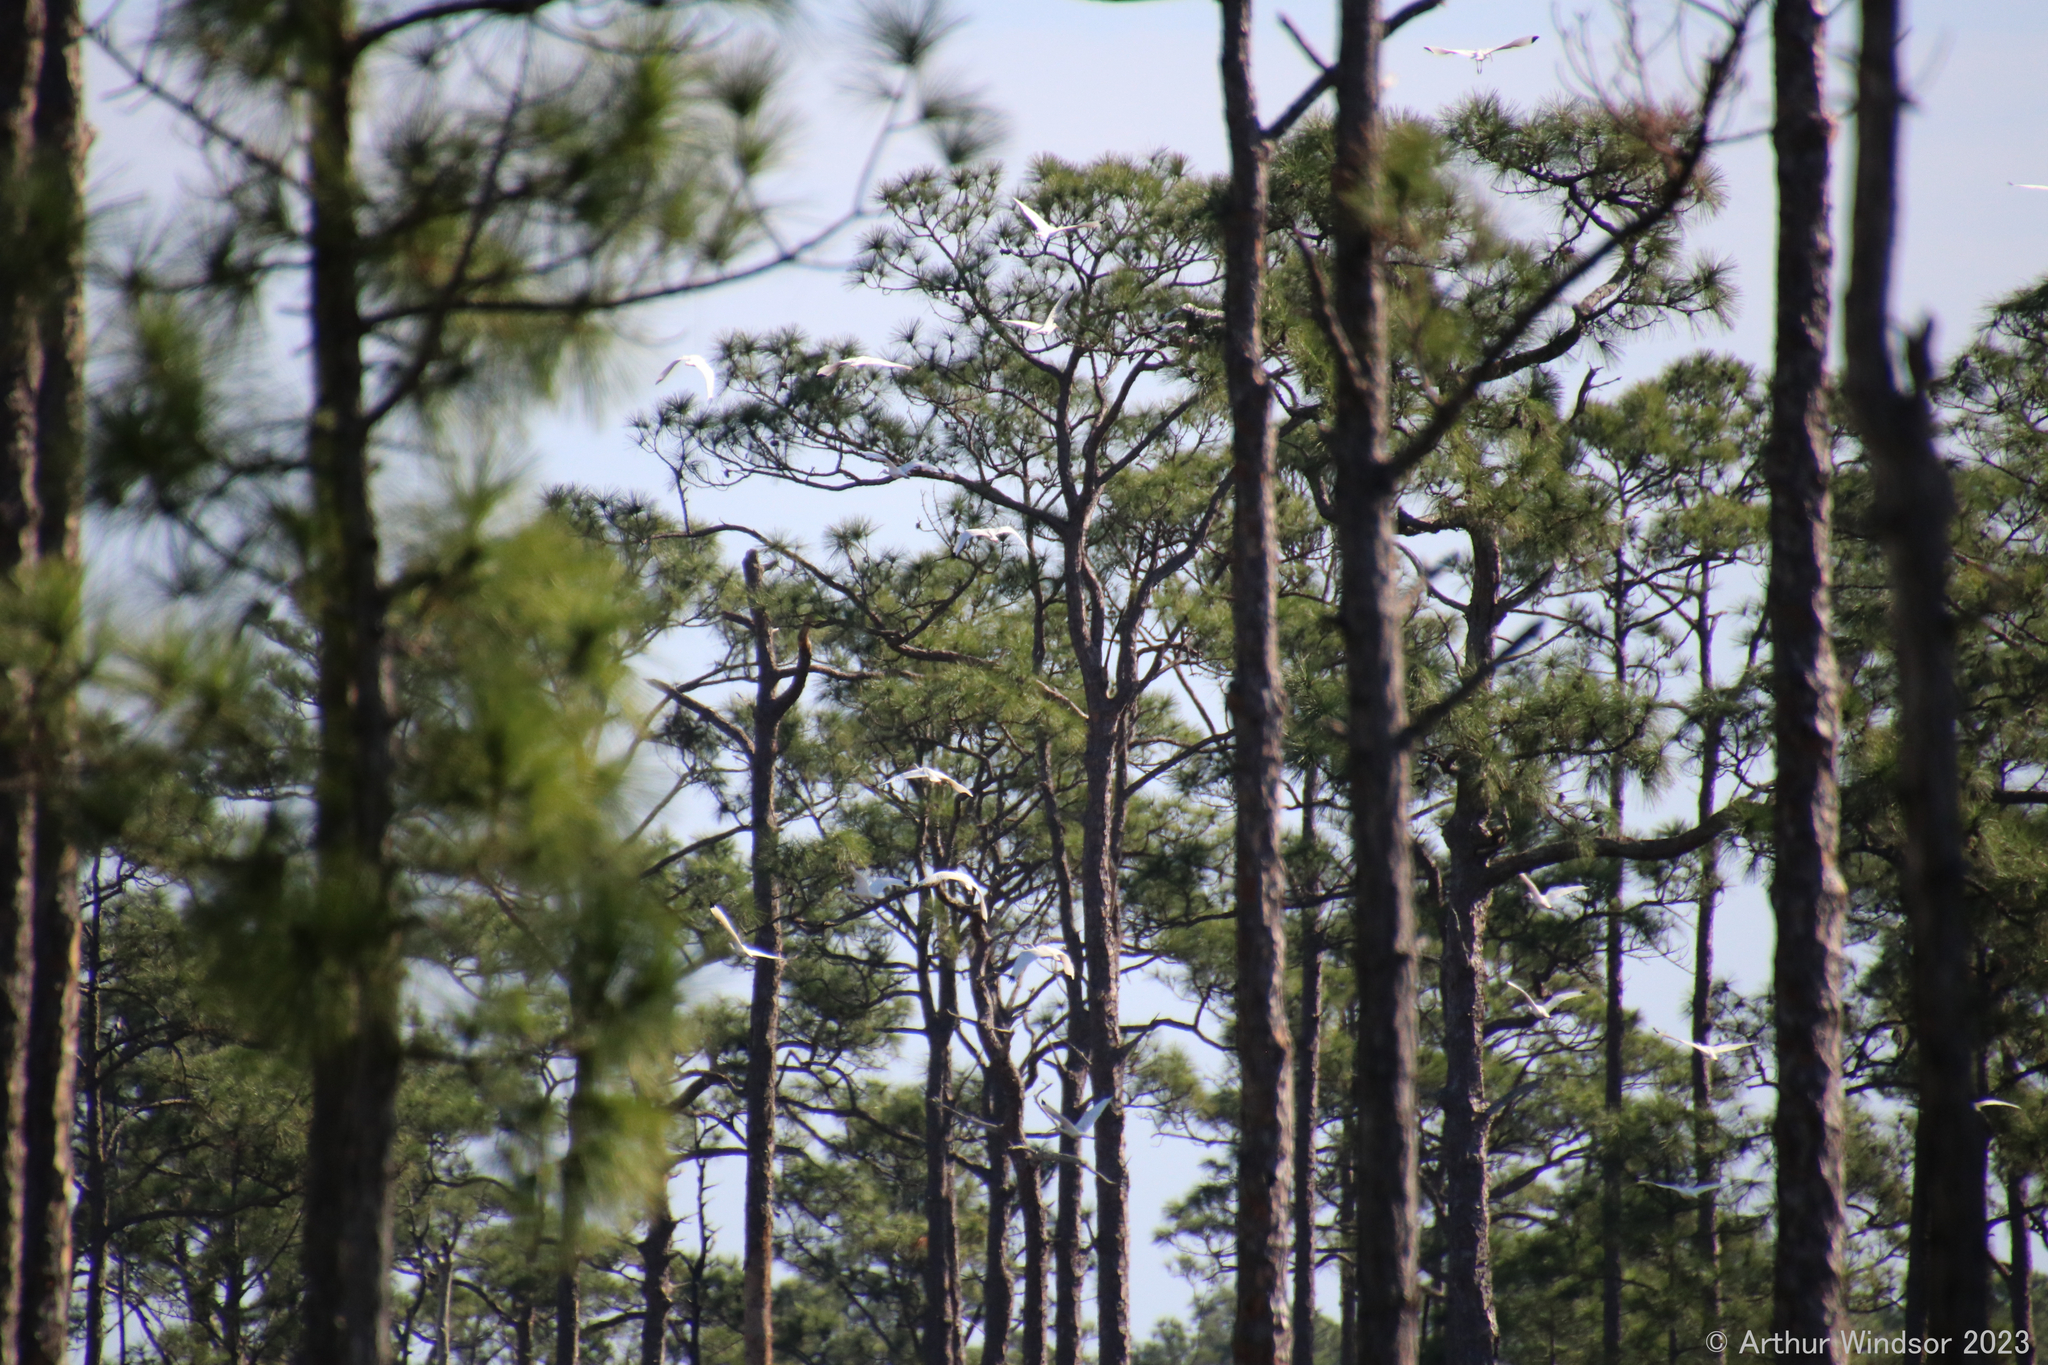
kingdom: Animalia
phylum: Chordata
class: Aves
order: Pelecaniformes
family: Threskiornithidae
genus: Eudocimus
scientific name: Eudocimus albus
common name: White ibis
